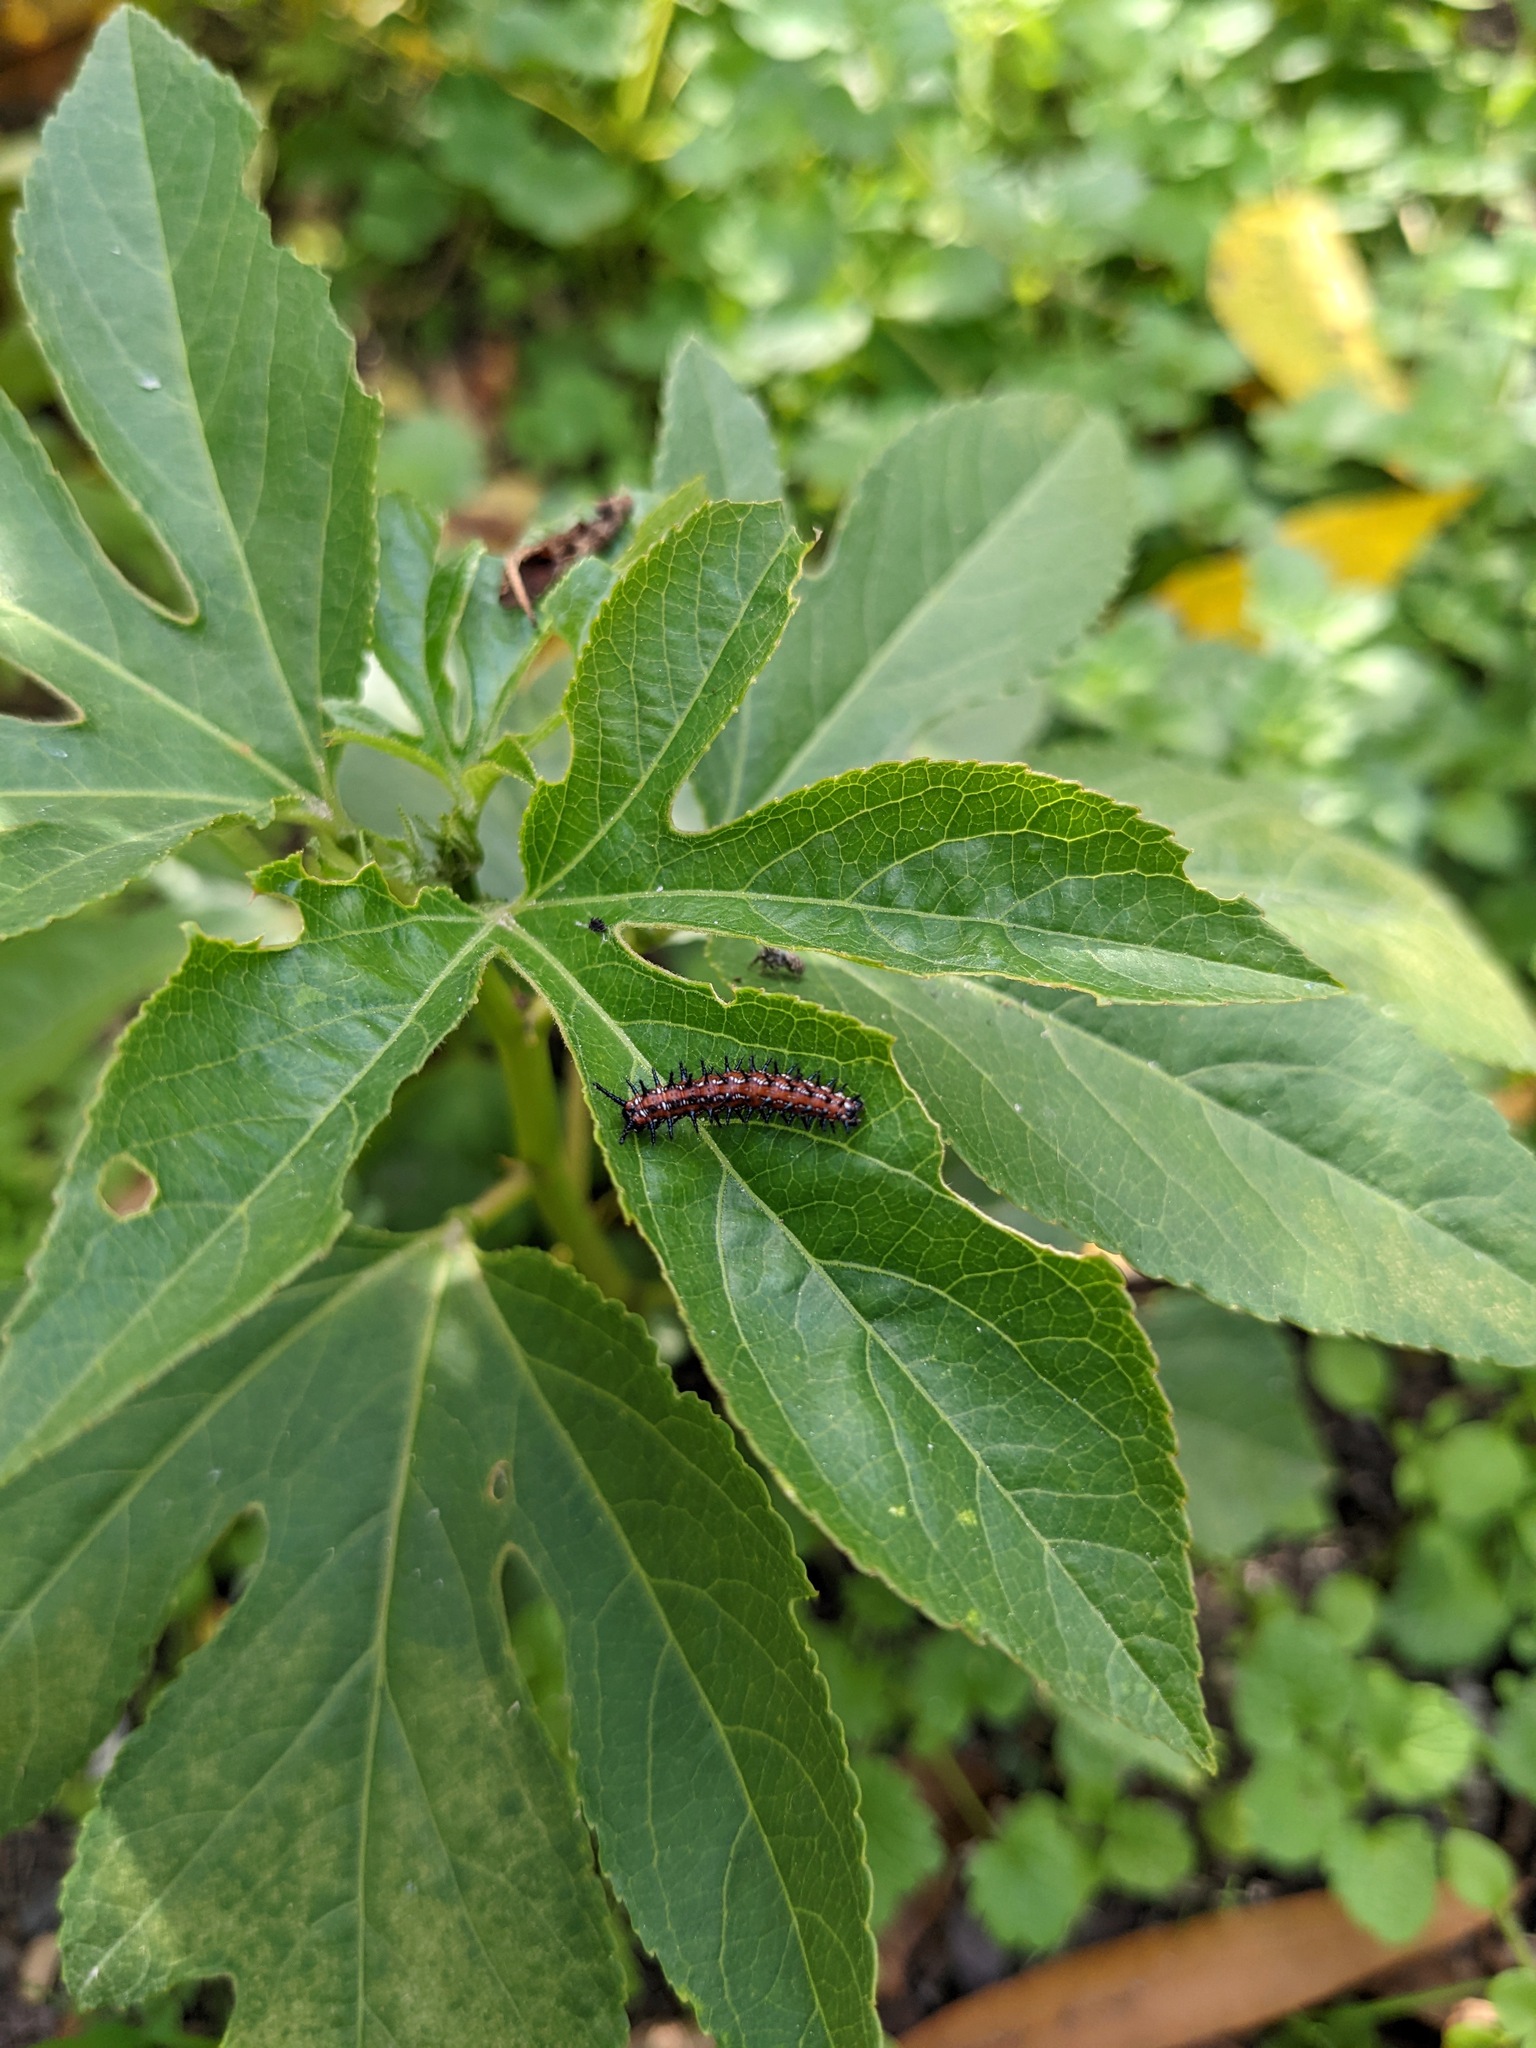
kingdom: Animalia
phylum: Arthropoda
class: Insecta
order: Lepidoptera
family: Nymphalidae
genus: Euptoieta
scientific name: Euptoieta claudia
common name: Variegated fritillary
